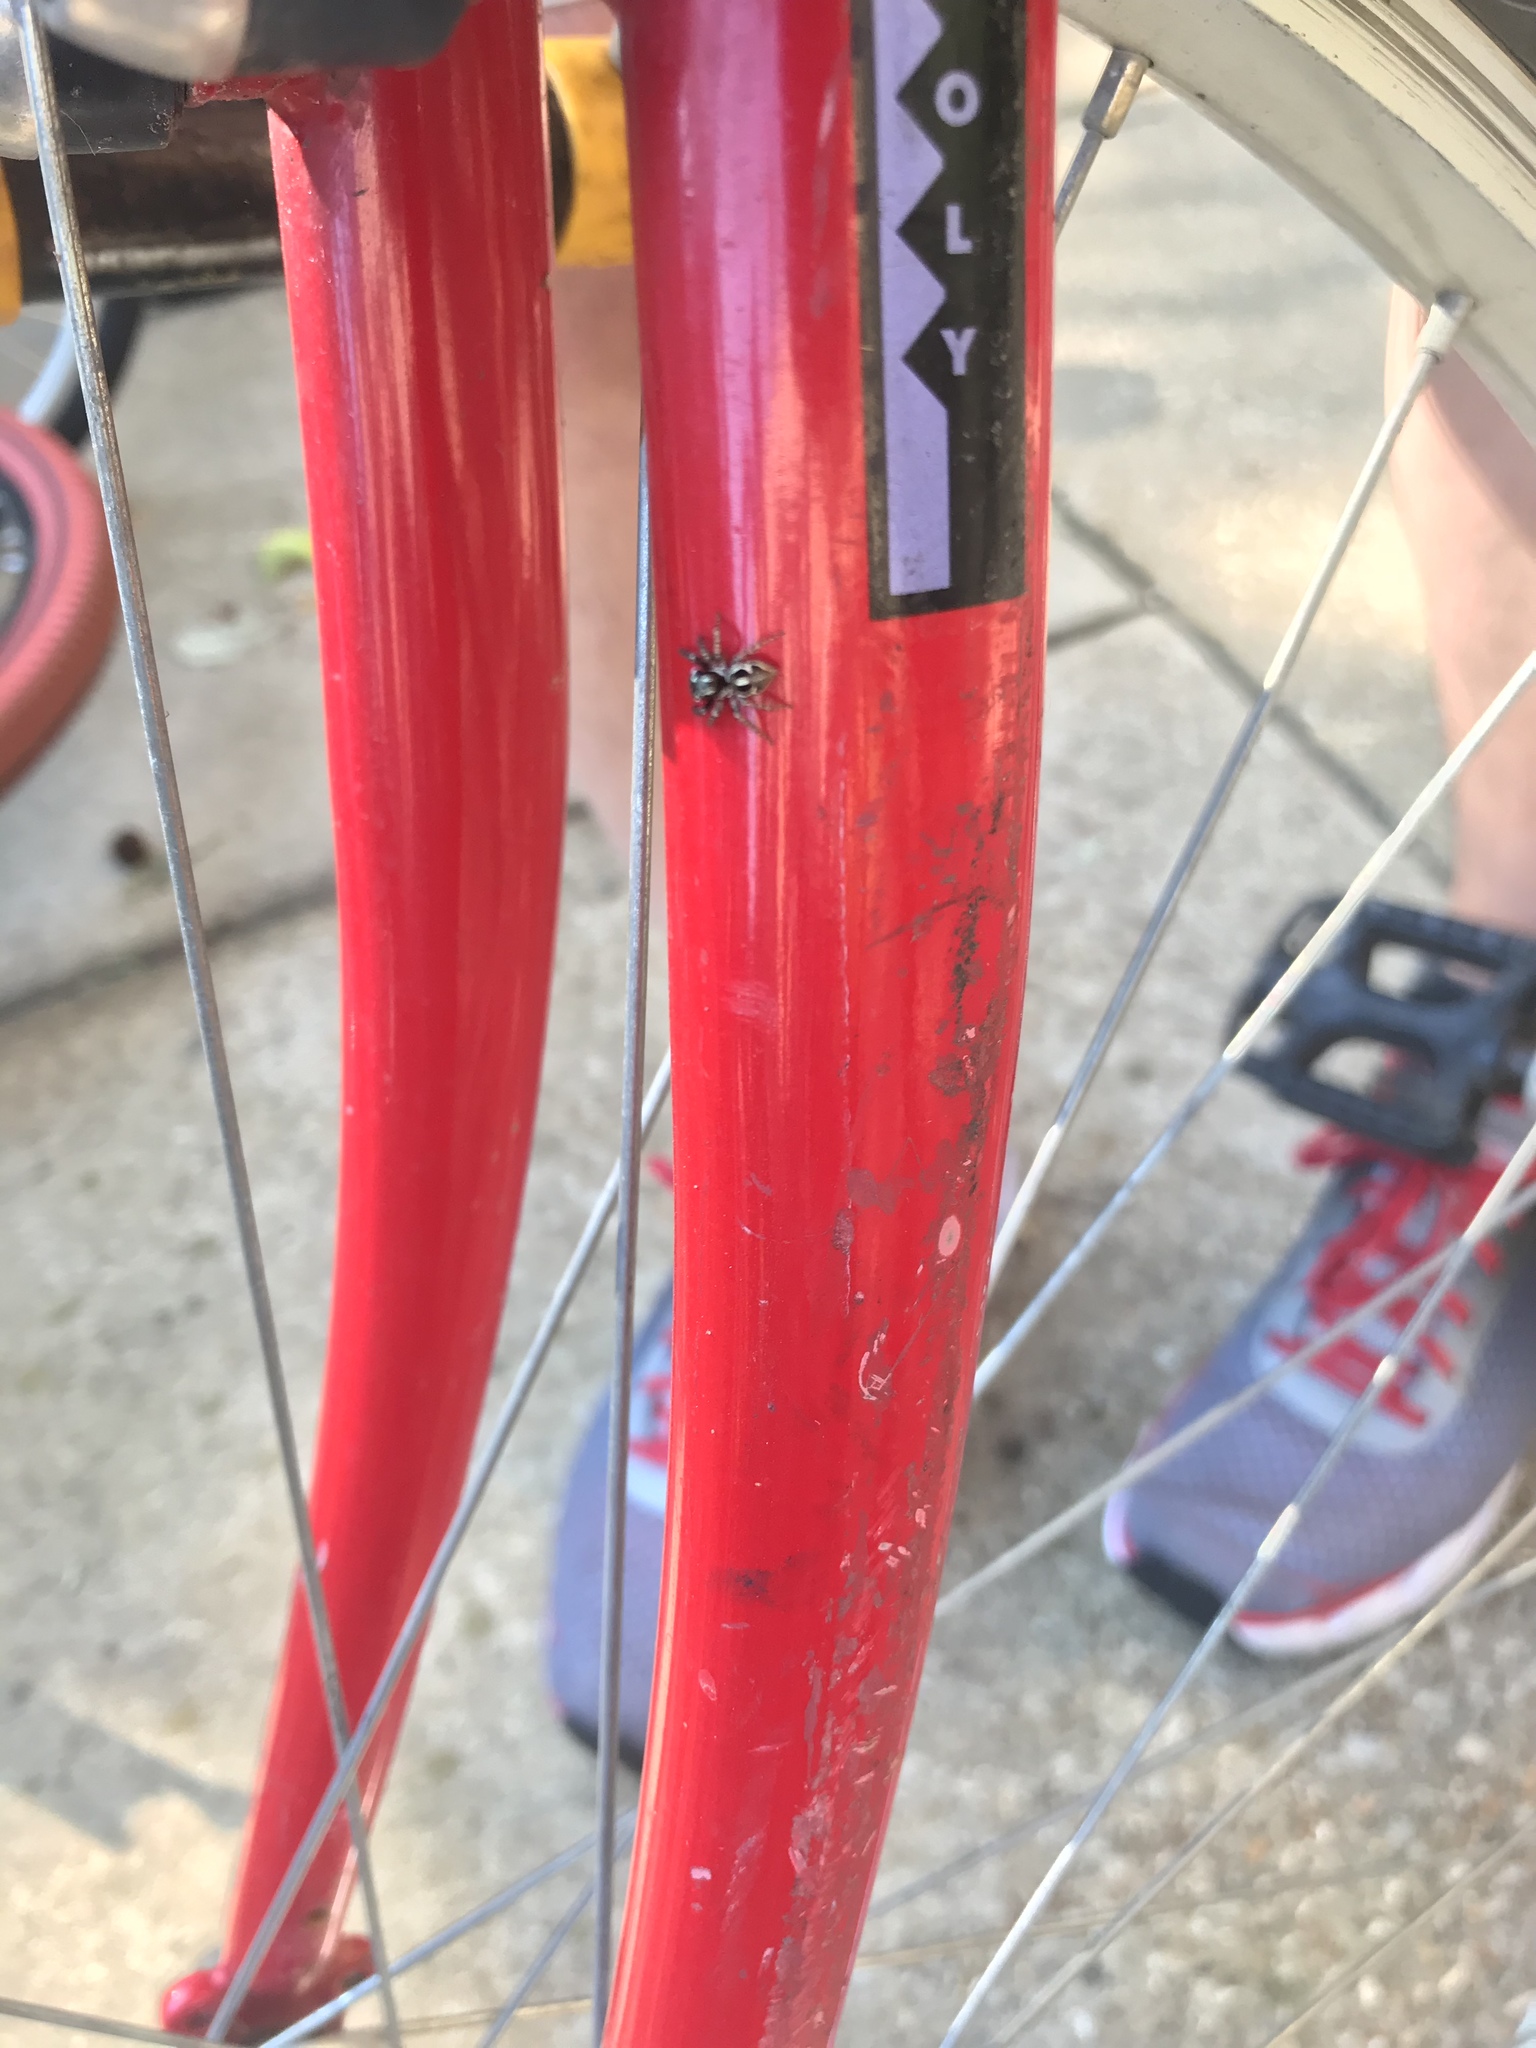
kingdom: Animalia
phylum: Arthropoda
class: Arachnida
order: Araneae
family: Salticidae
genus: Anasaitis
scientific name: Anasaitis canosa
